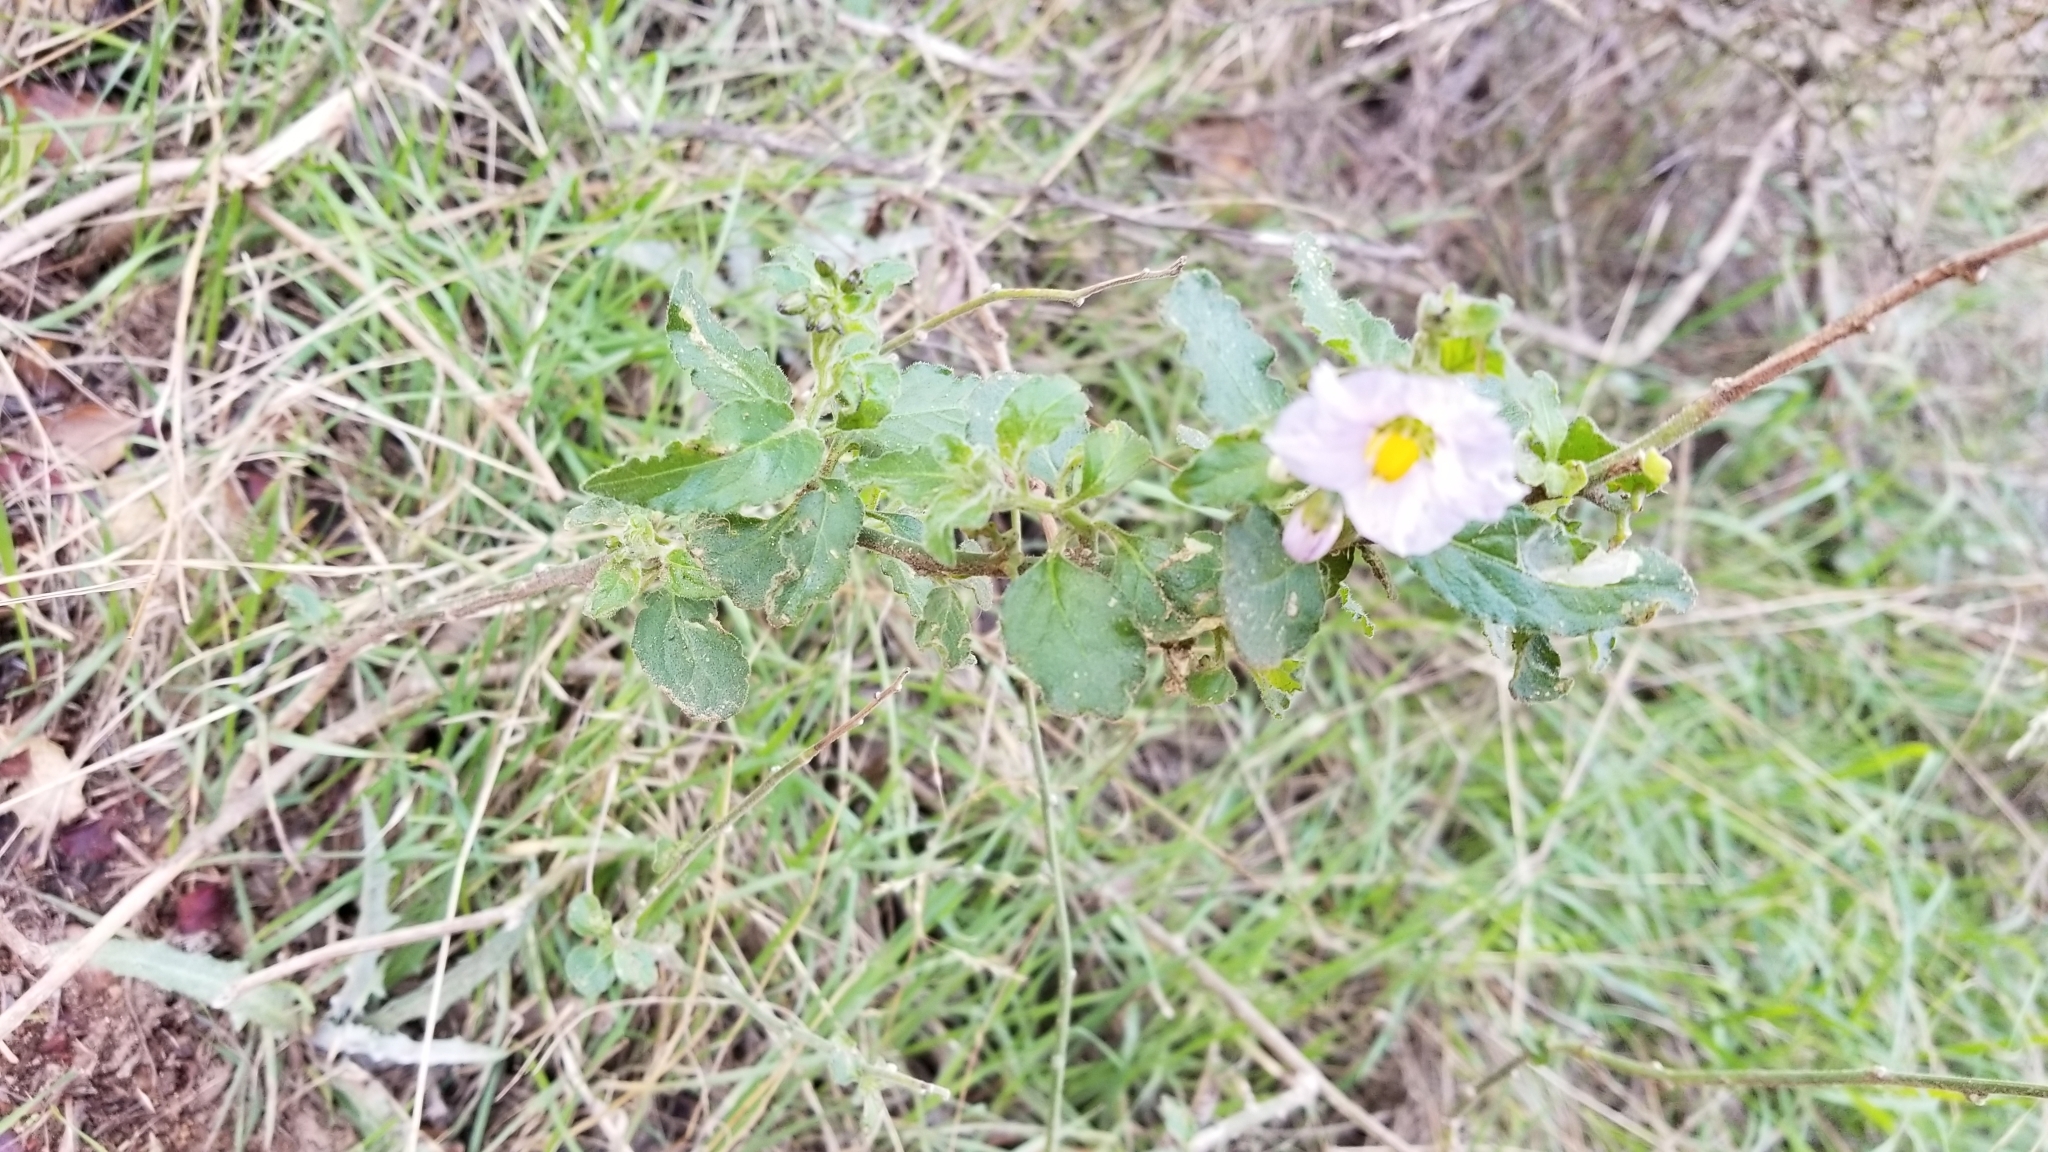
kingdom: Plantae
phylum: Tracheophyta
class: Magnoliopsida
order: Solanales
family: Solanaceae
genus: Solanum
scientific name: Solanum umbelliferum
